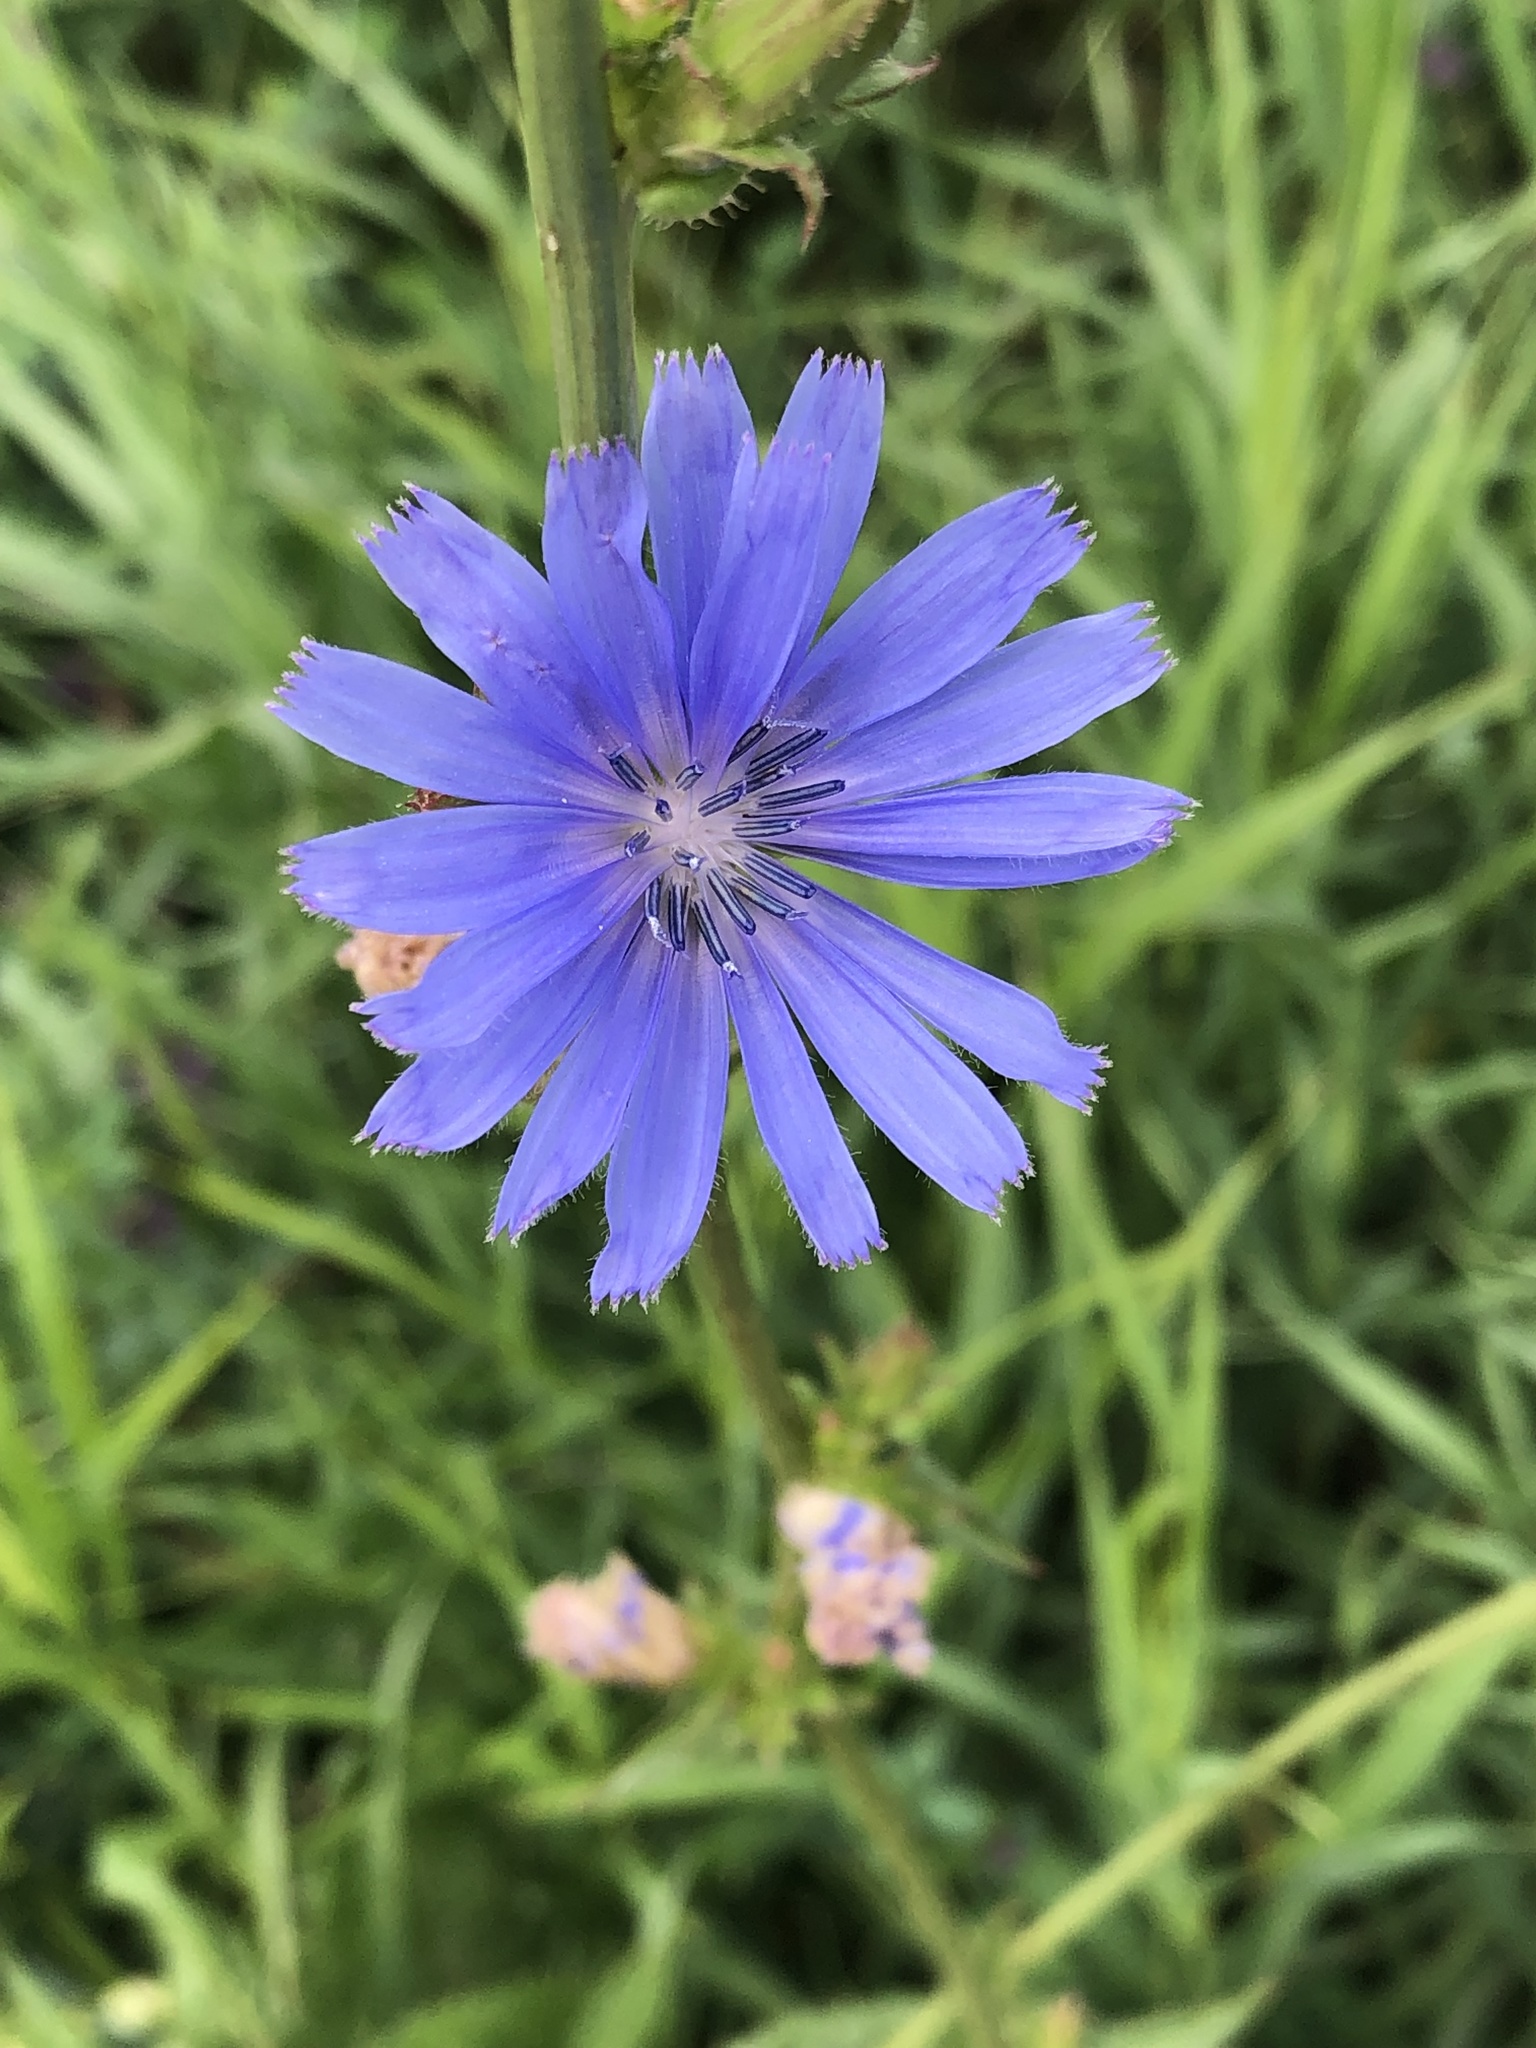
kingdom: Plantae
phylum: Tracheophyta
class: Magnoliopsida
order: Asterales
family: Asteraceae
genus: Cichorium
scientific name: Cichorium intybus
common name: Chicory
